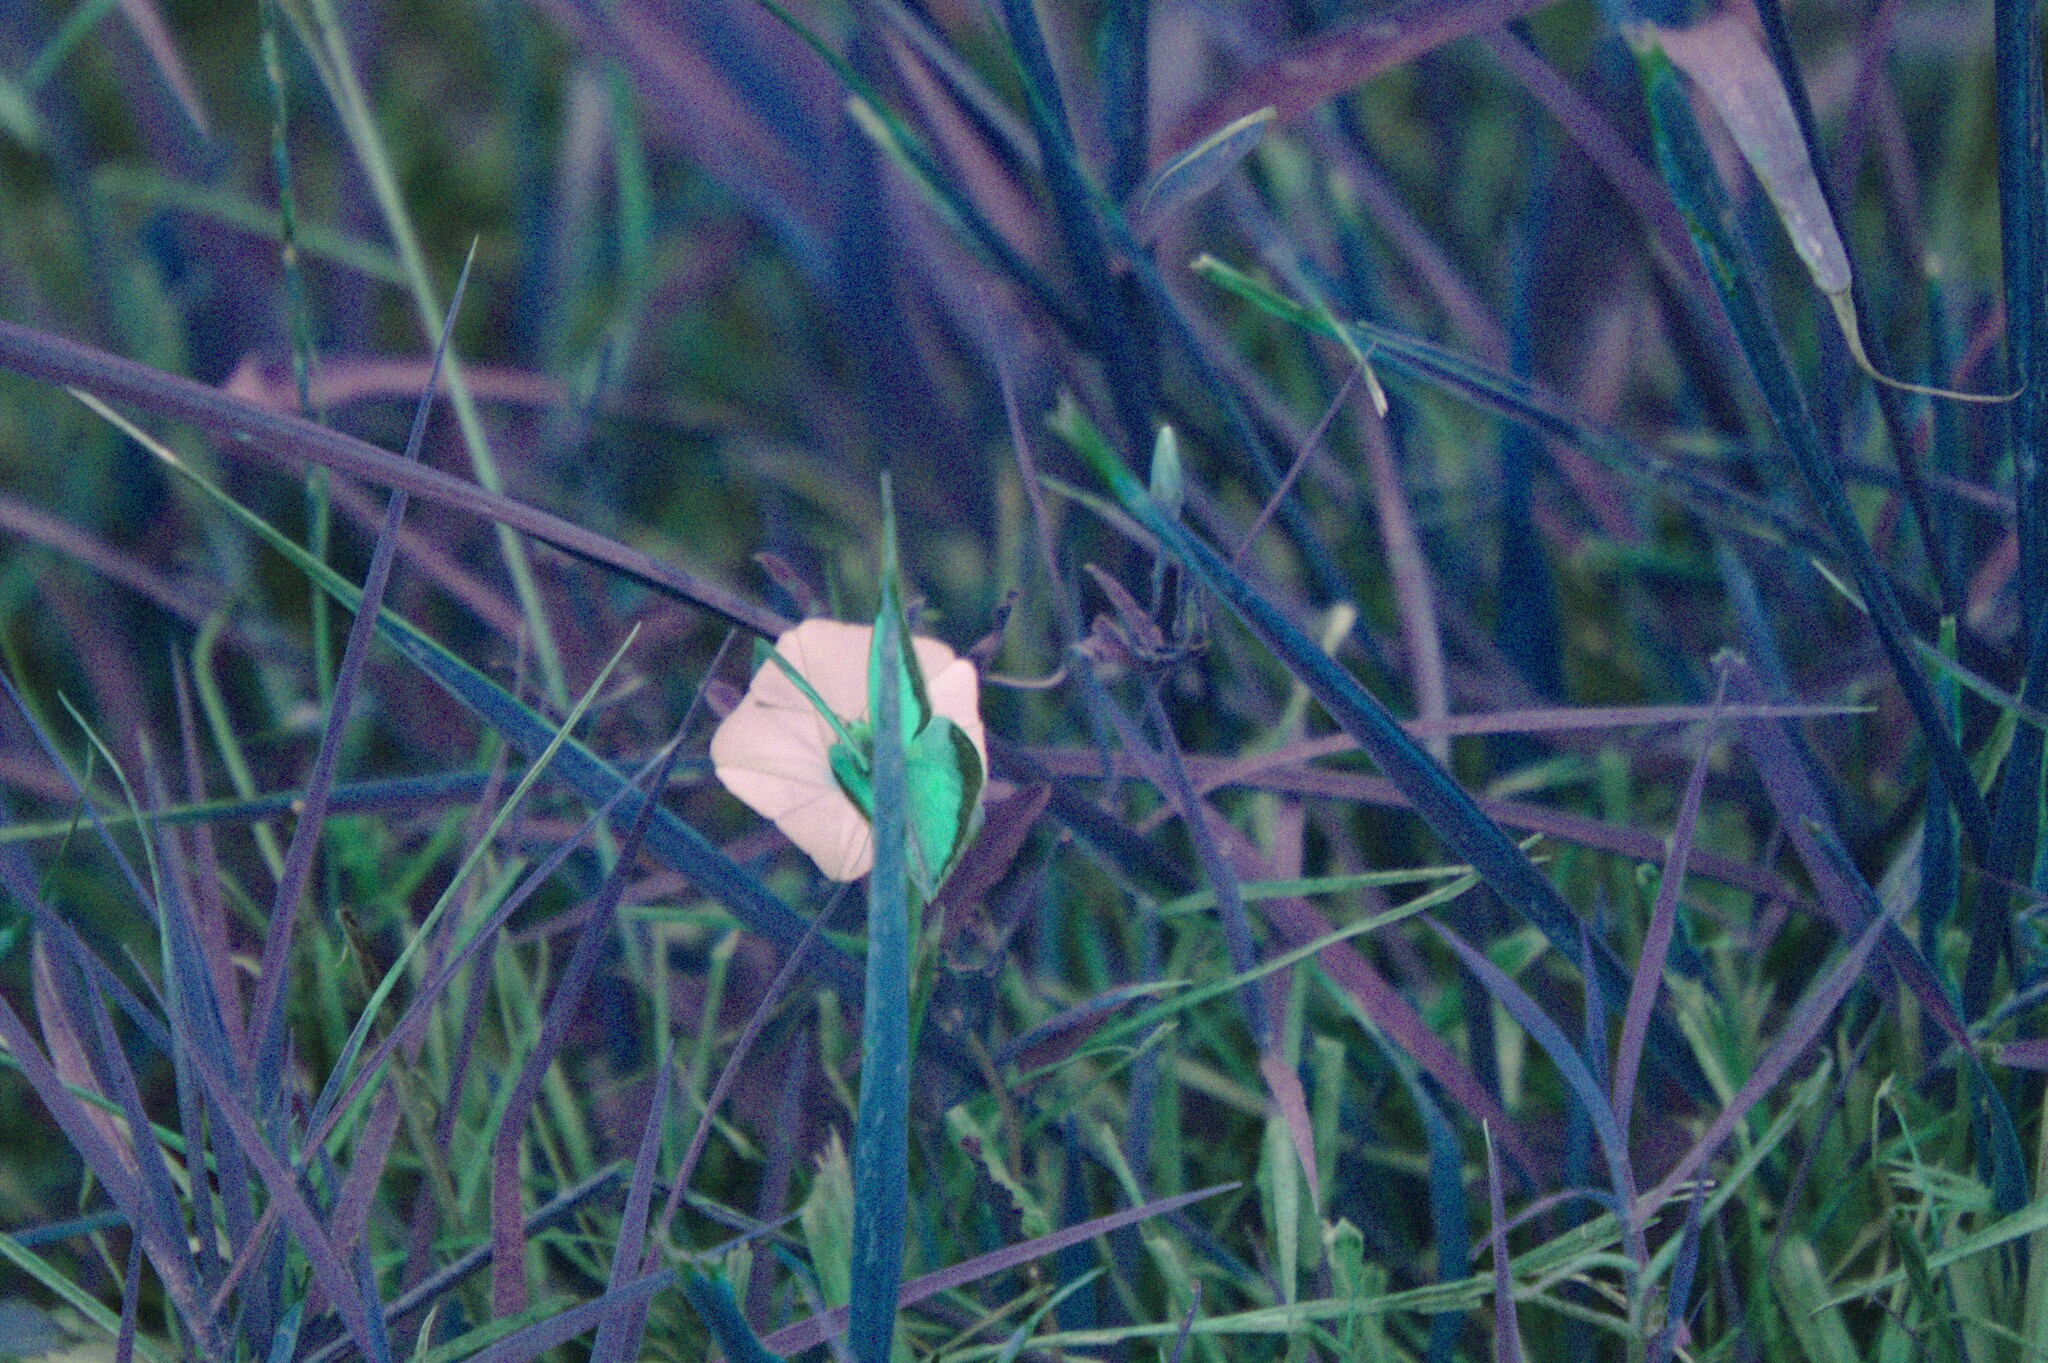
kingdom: Animalia
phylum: Arthropoda
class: Insecta
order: Lepidoptera
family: Pieridae
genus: Colias
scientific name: Colias croceus
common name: Clouded yellow
